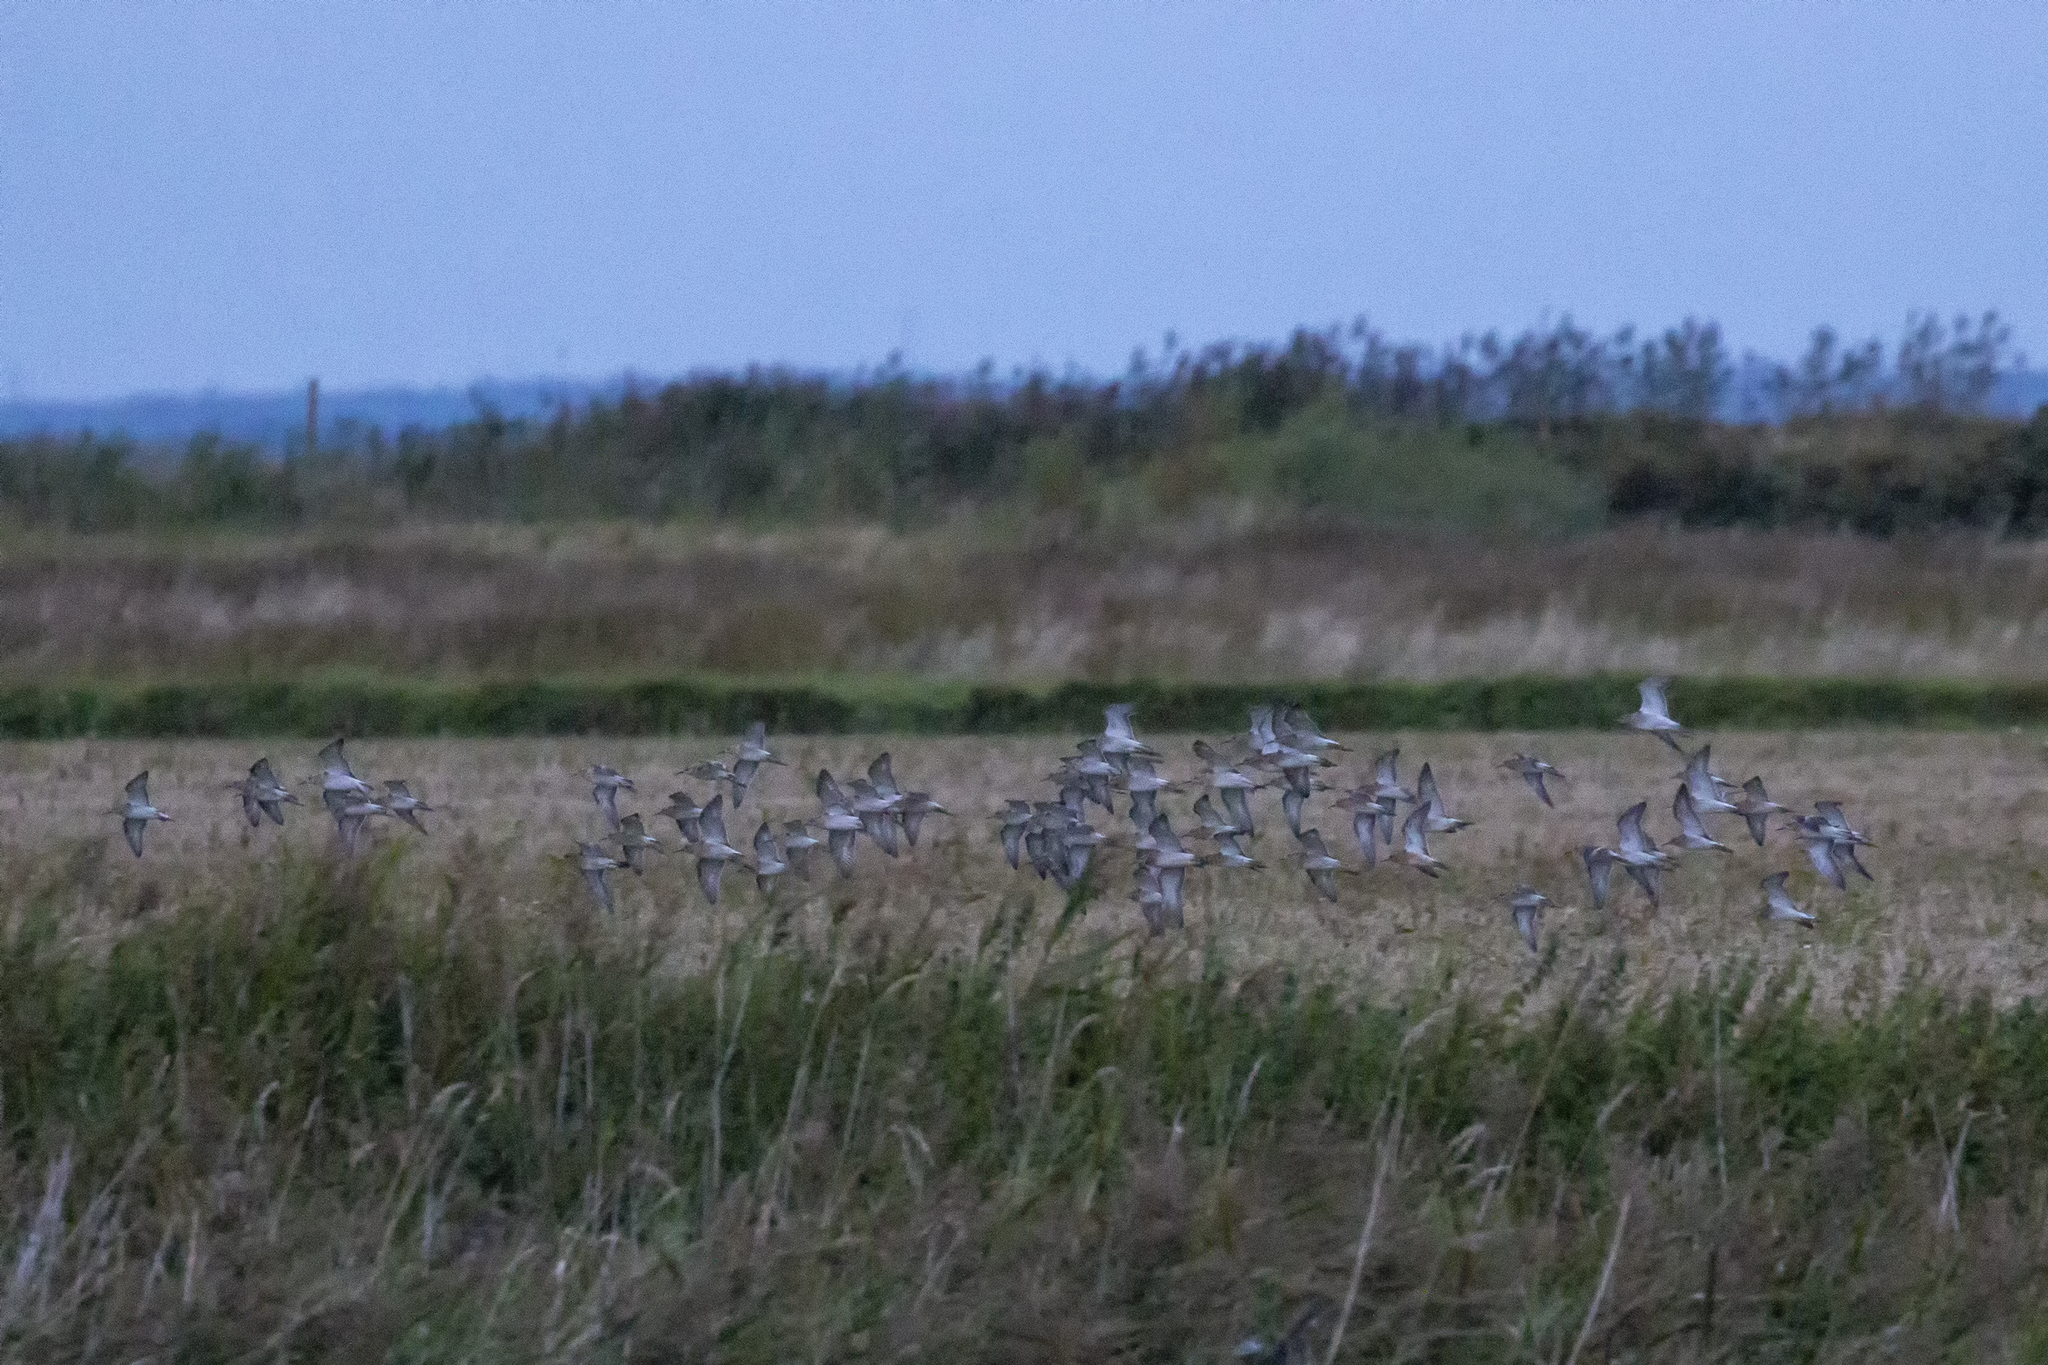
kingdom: Animalia
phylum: Chordata
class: Aves
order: Charadriiformes
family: Scolopacidae
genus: Calidris
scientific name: Calidris pugnax
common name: Ruff
